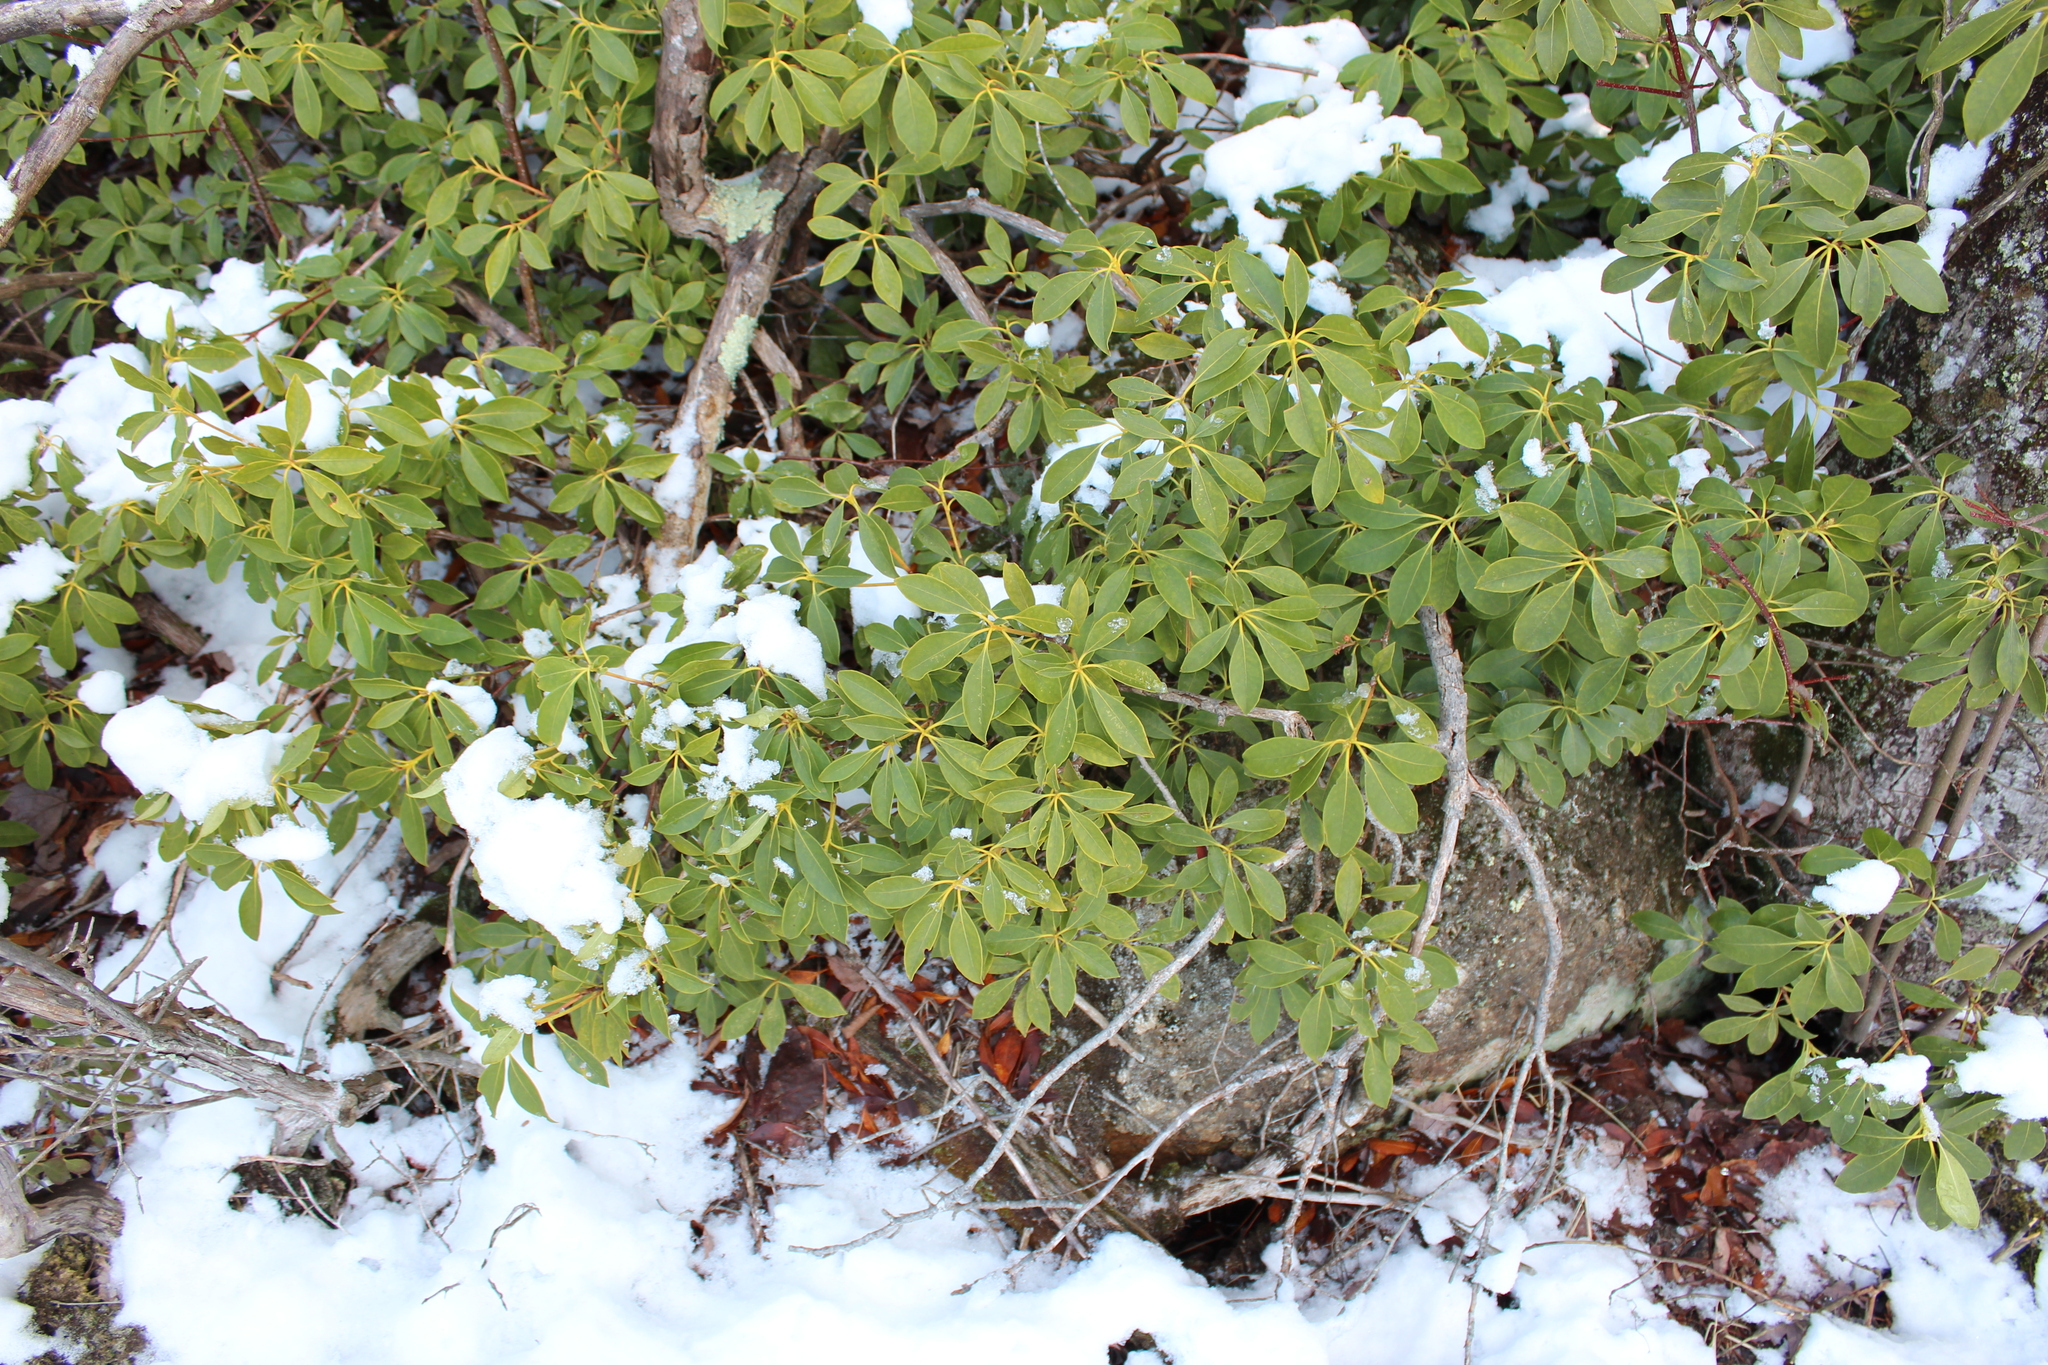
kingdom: Plantae
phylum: Tracheophyta
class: Magnoliopsida
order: Ericales
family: Ericaceae
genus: Kalmia
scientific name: Kalmia latifolia
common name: Mountain-laurel
